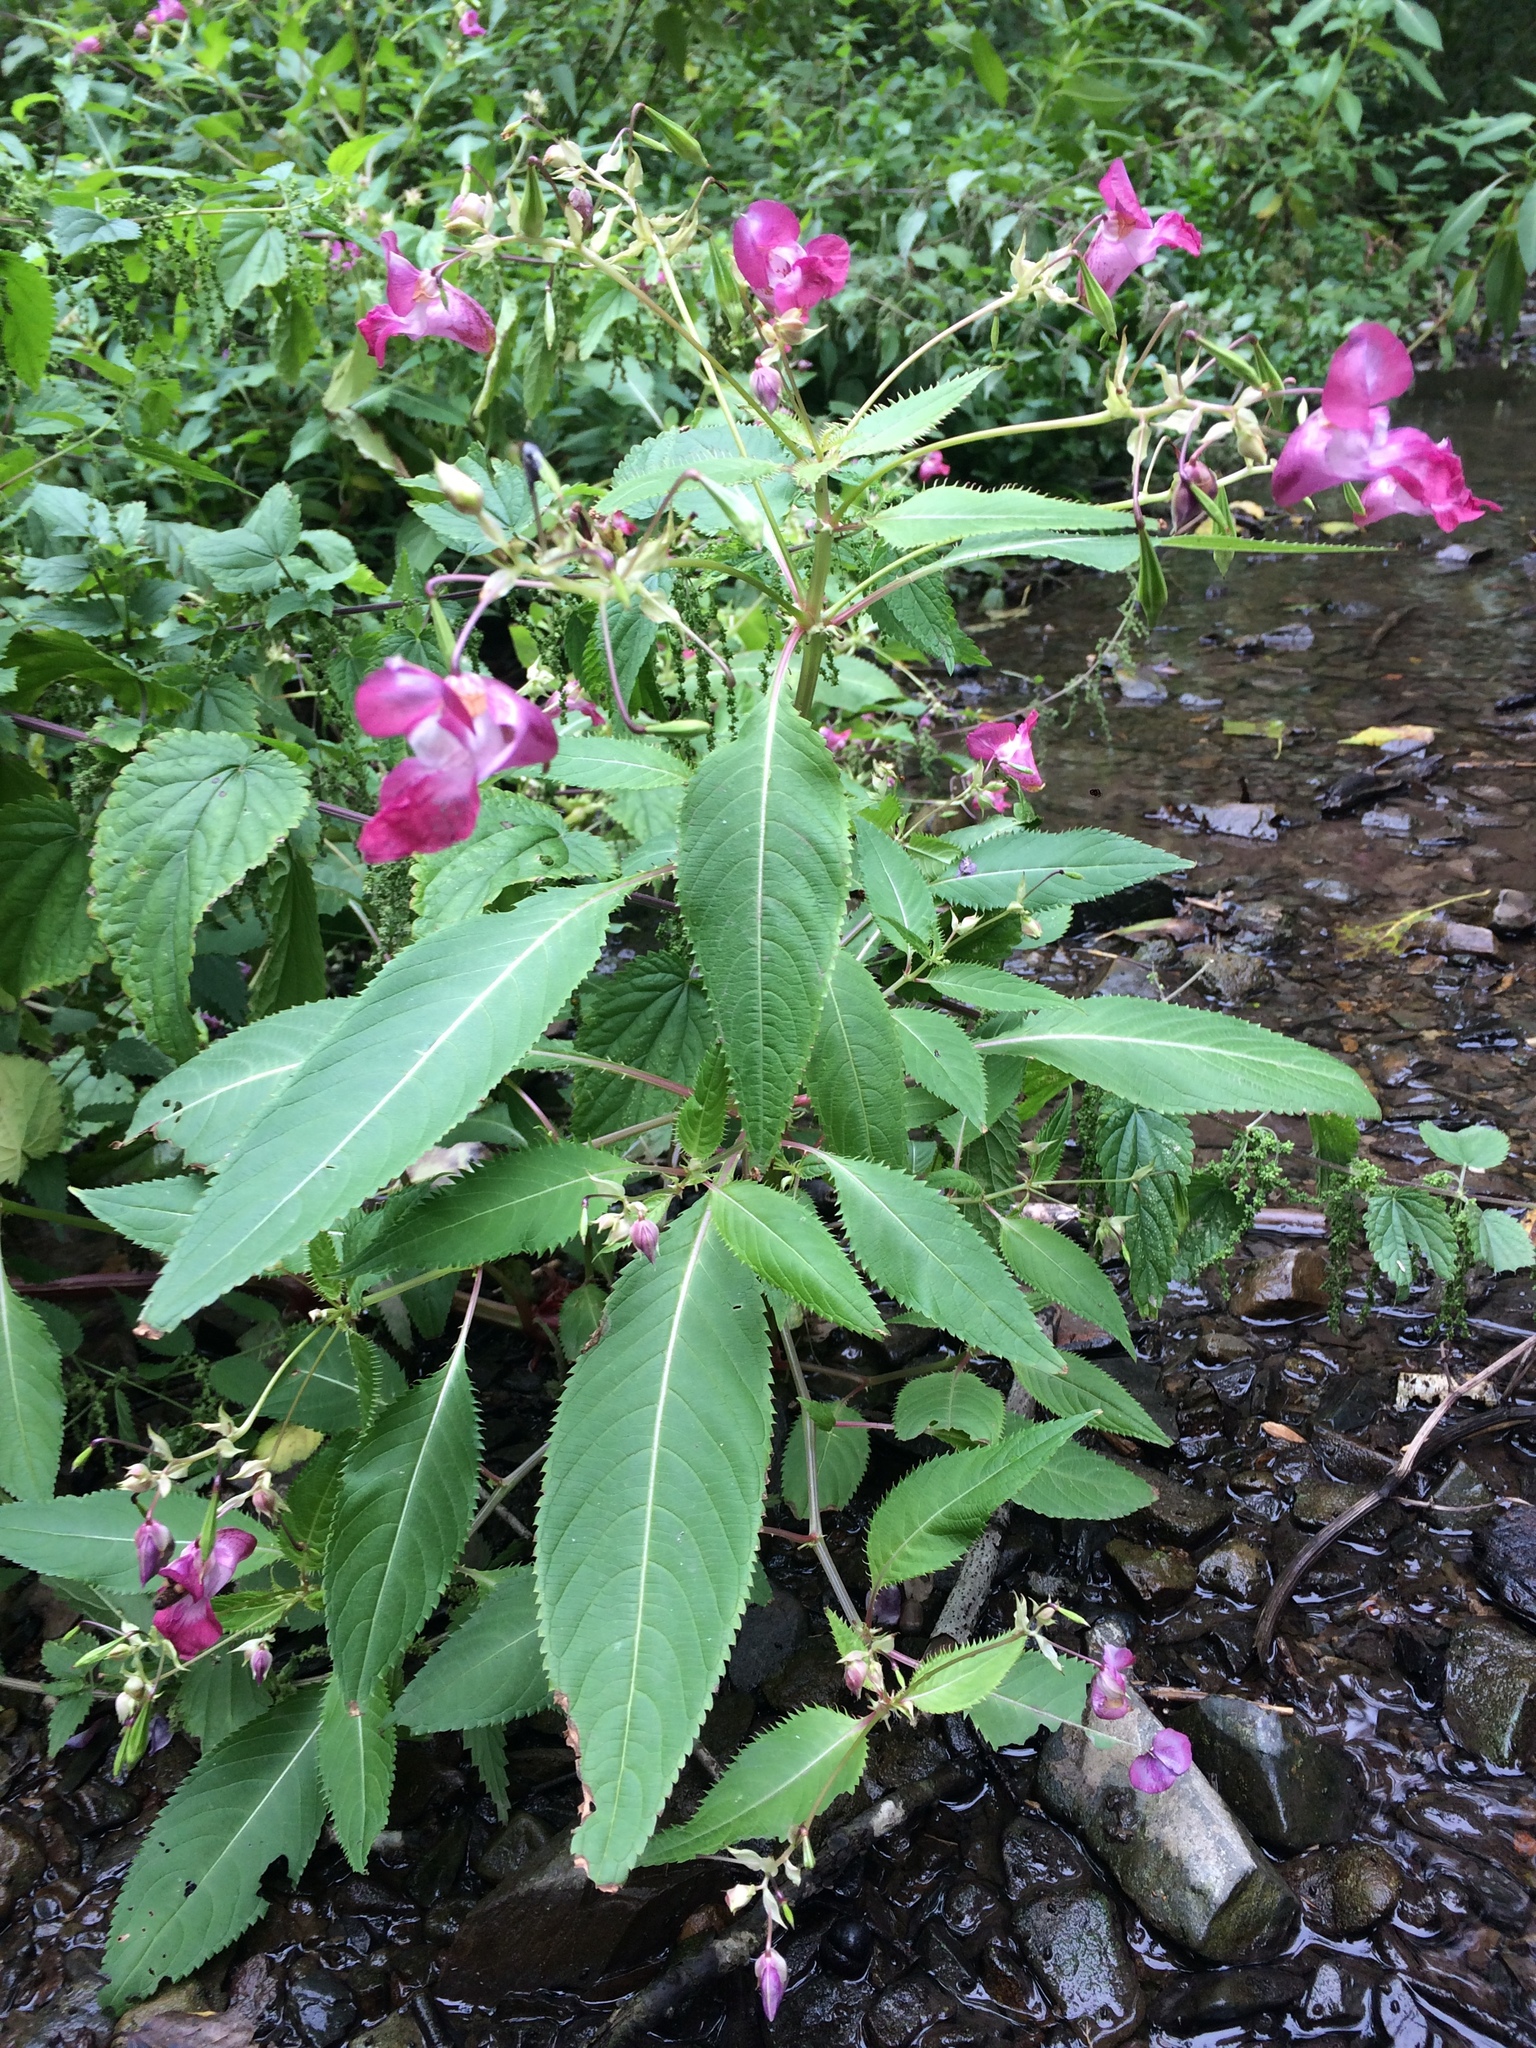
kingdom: Plantae
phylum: Tracheophyta
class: Magnoliopsida
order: Ericales
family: Balsaminaceae
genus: Impatiens
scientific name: Impatiens glandulifera
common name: Himalayan balsam
